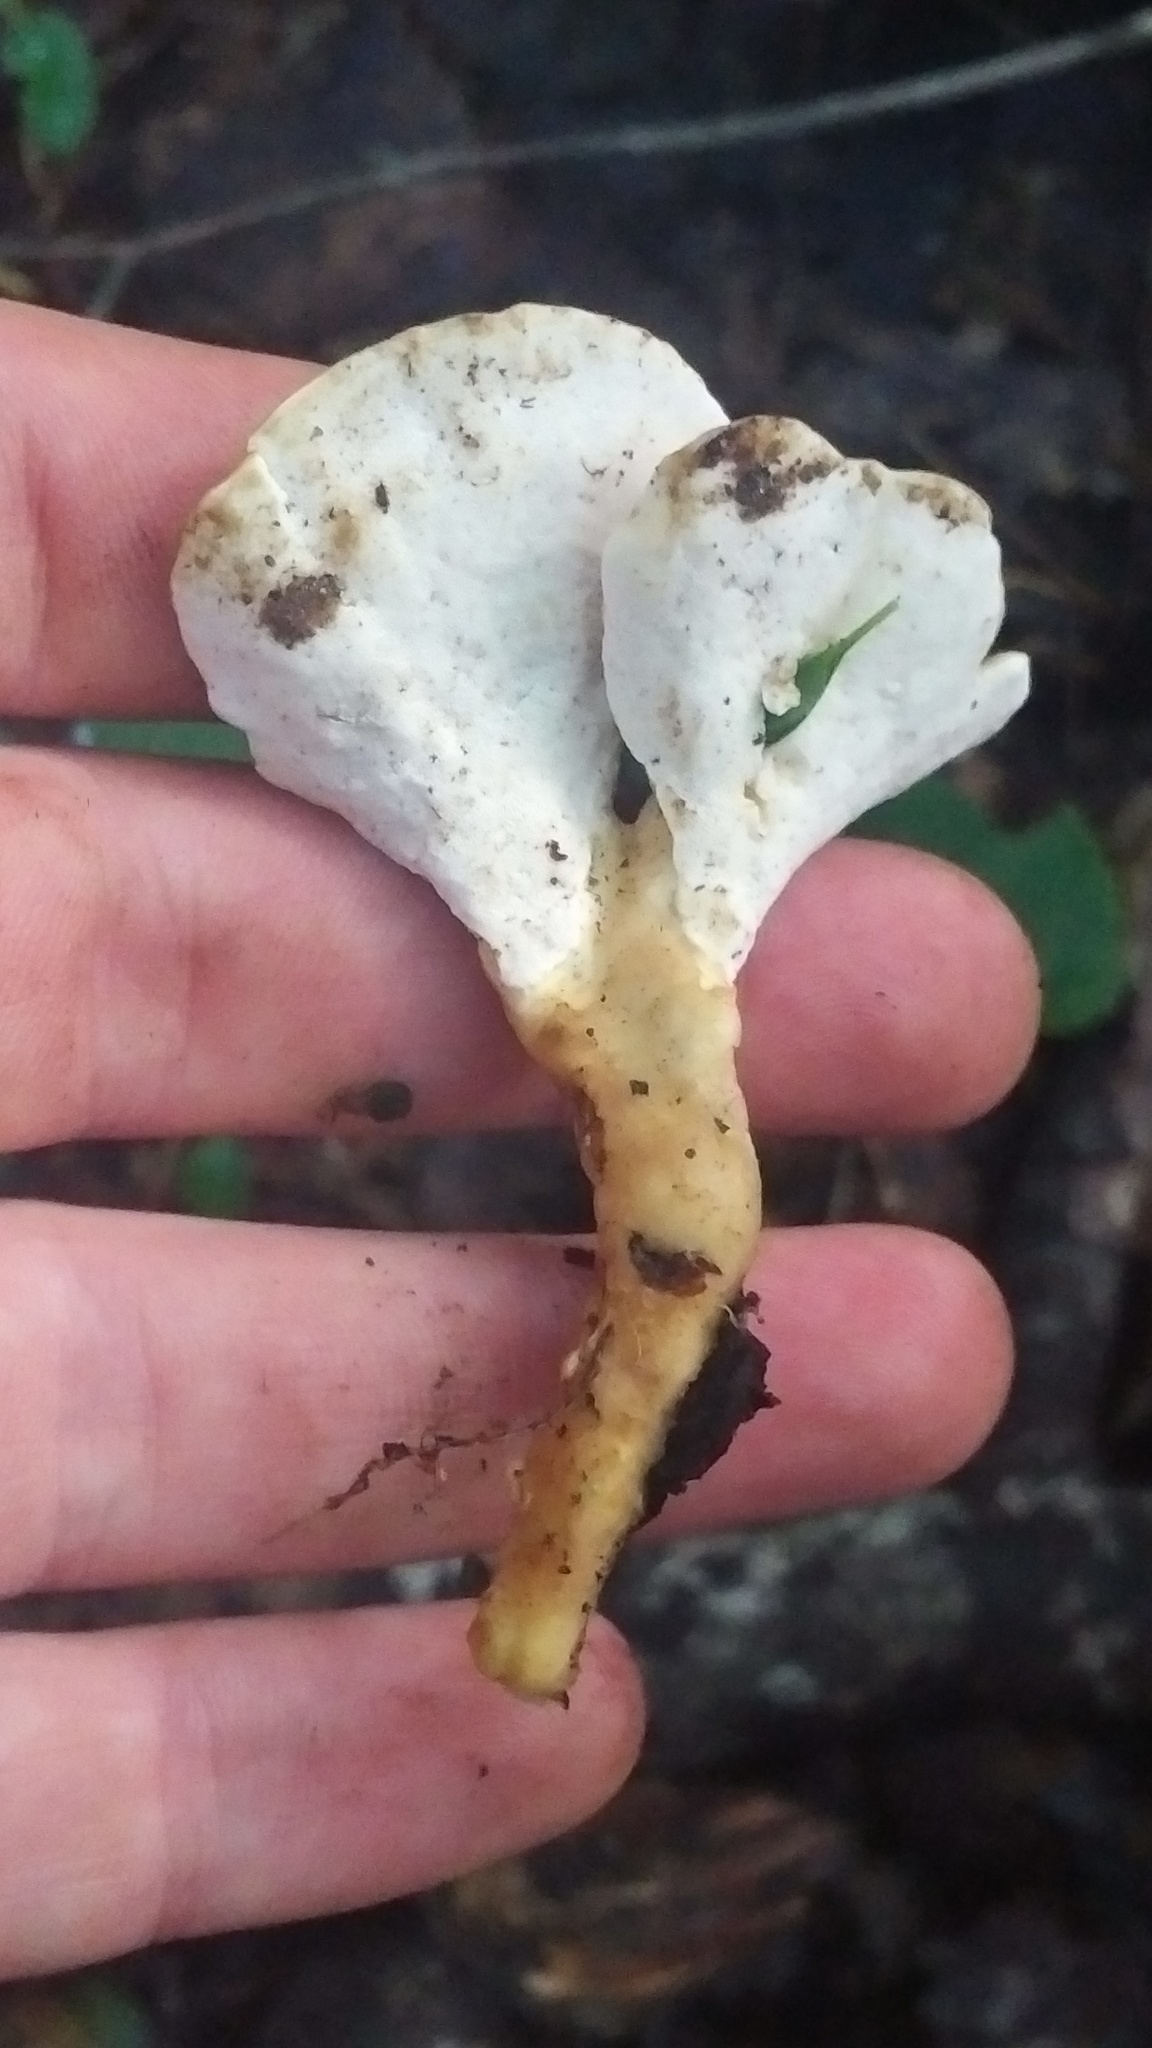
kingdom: Fungi
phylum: Basidiomycota
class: Agaricomycetes
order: Polyporales
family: Steccherinaceae
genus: Loweomyces
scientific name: Loweomyces fractipes
